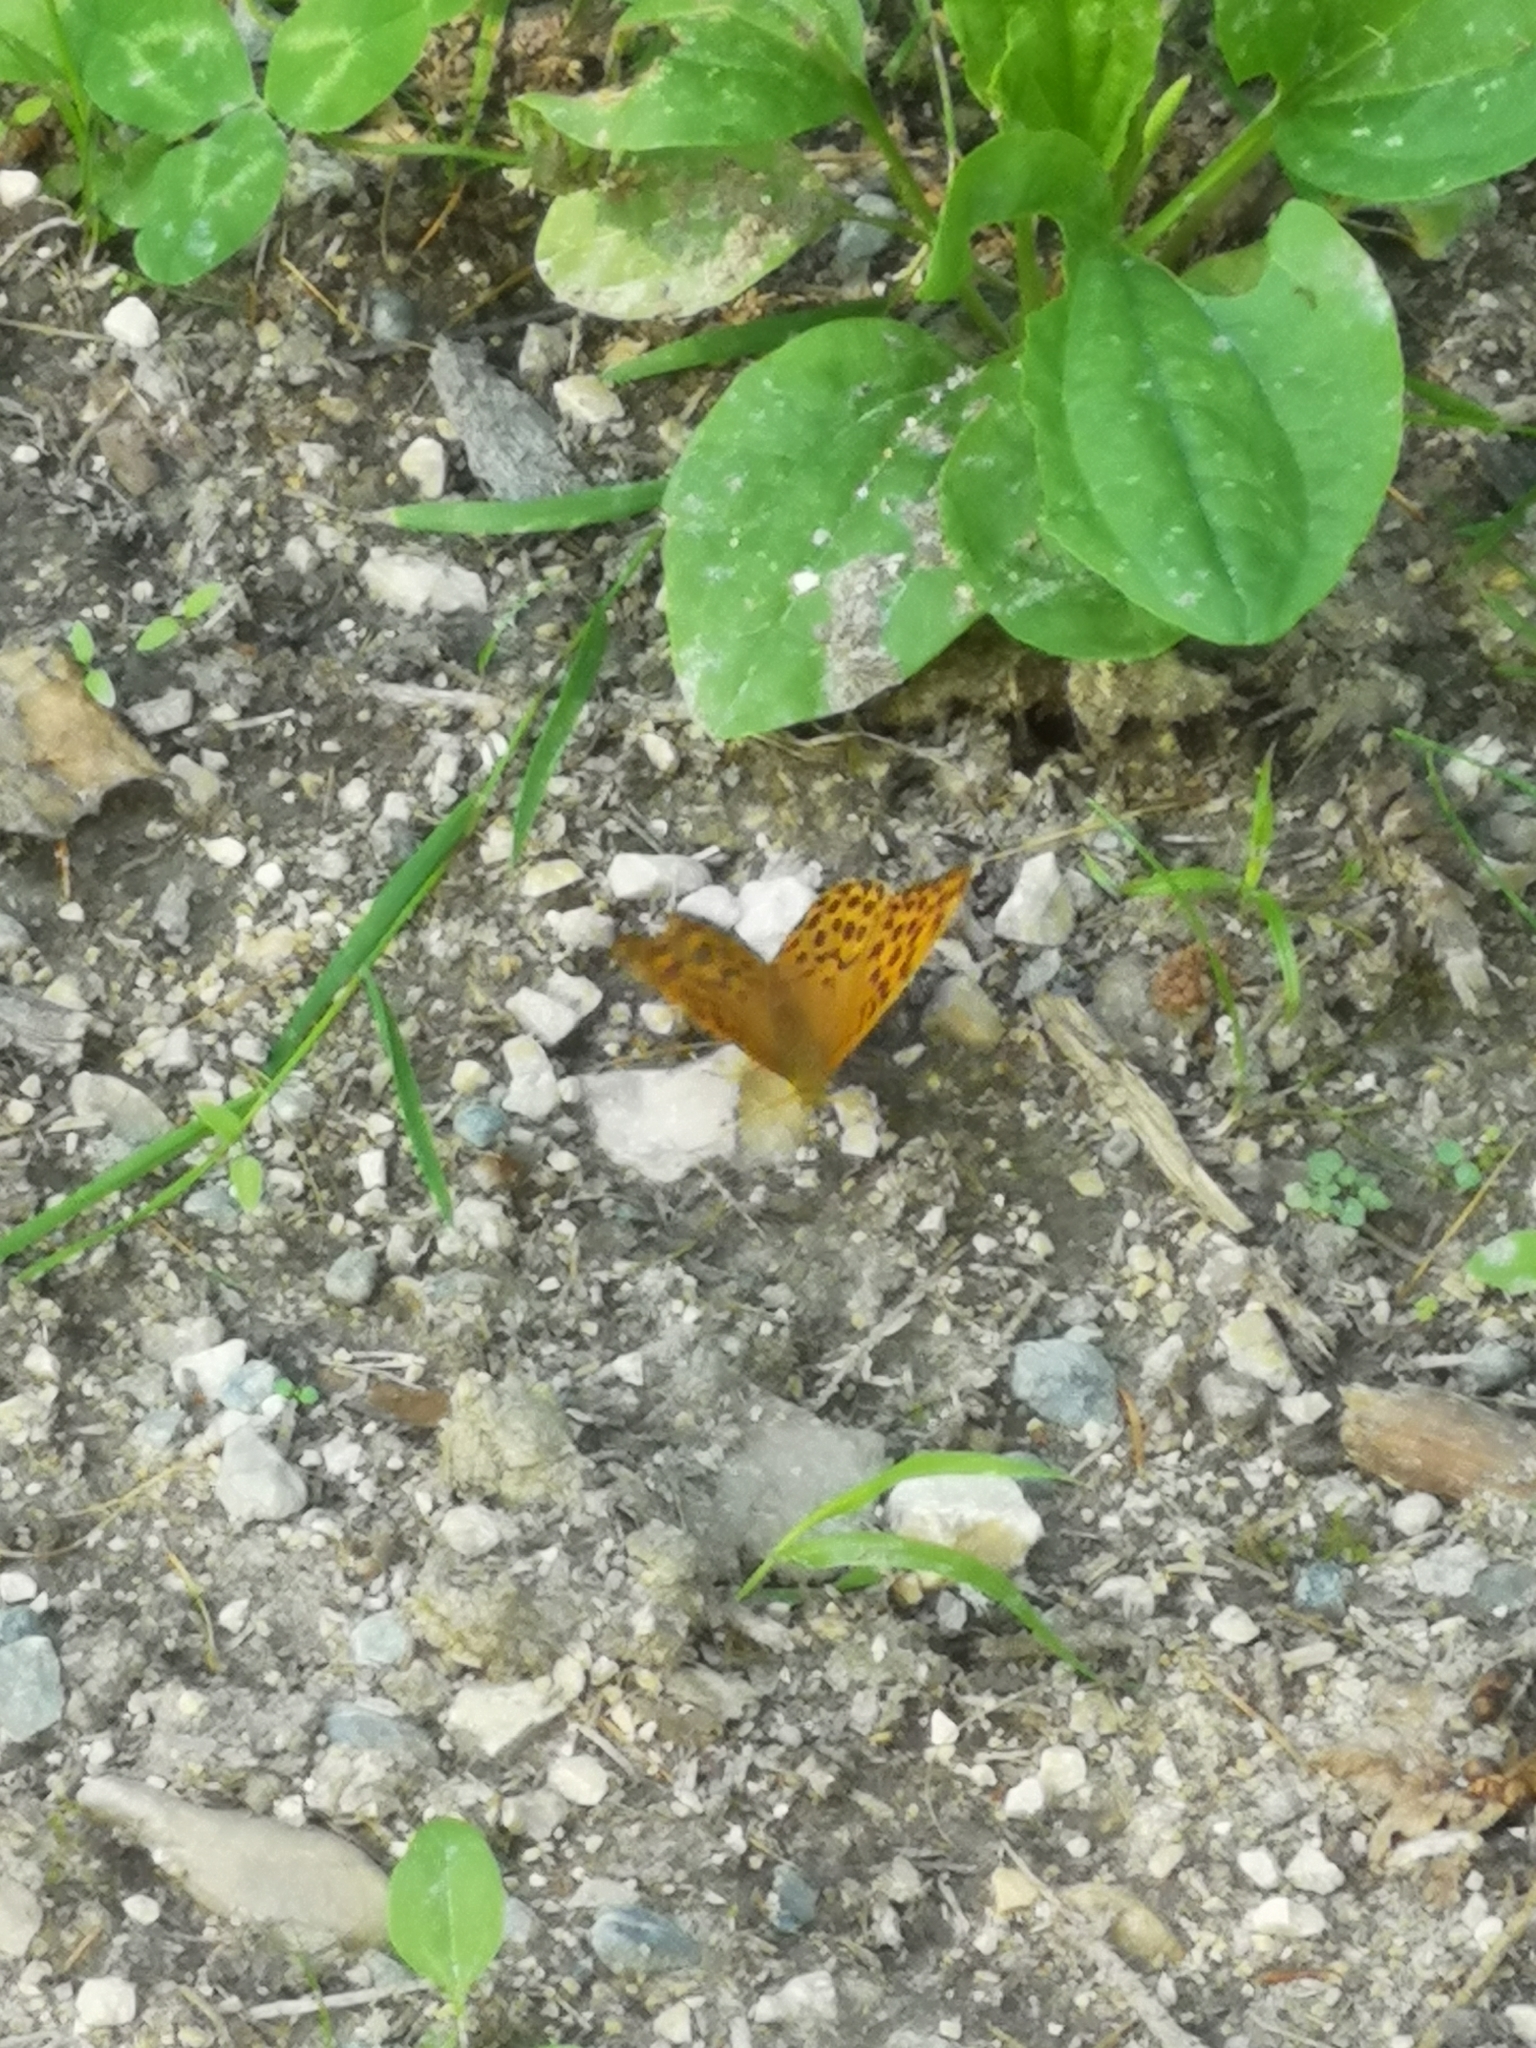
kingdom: Animalia
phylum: Arthropoda
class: Insecta
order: Lepidoptera
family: Nymphalidae
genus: Argynnis
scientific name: Argynnis paphia
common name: Silver-washed fritillary
